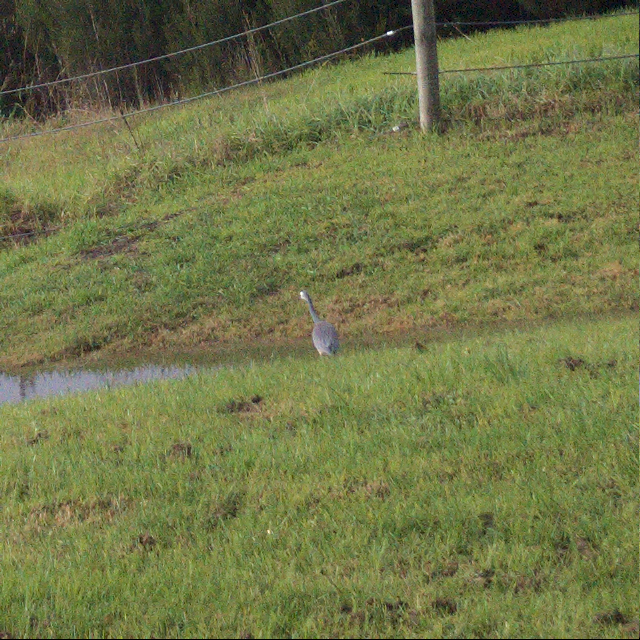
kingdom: Animalia
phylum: Chordata
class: Aves
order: Pelecaniformes
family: Ardeidae
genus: Egretta
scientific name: Egretta novaehollandiae
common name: White-faced heron
